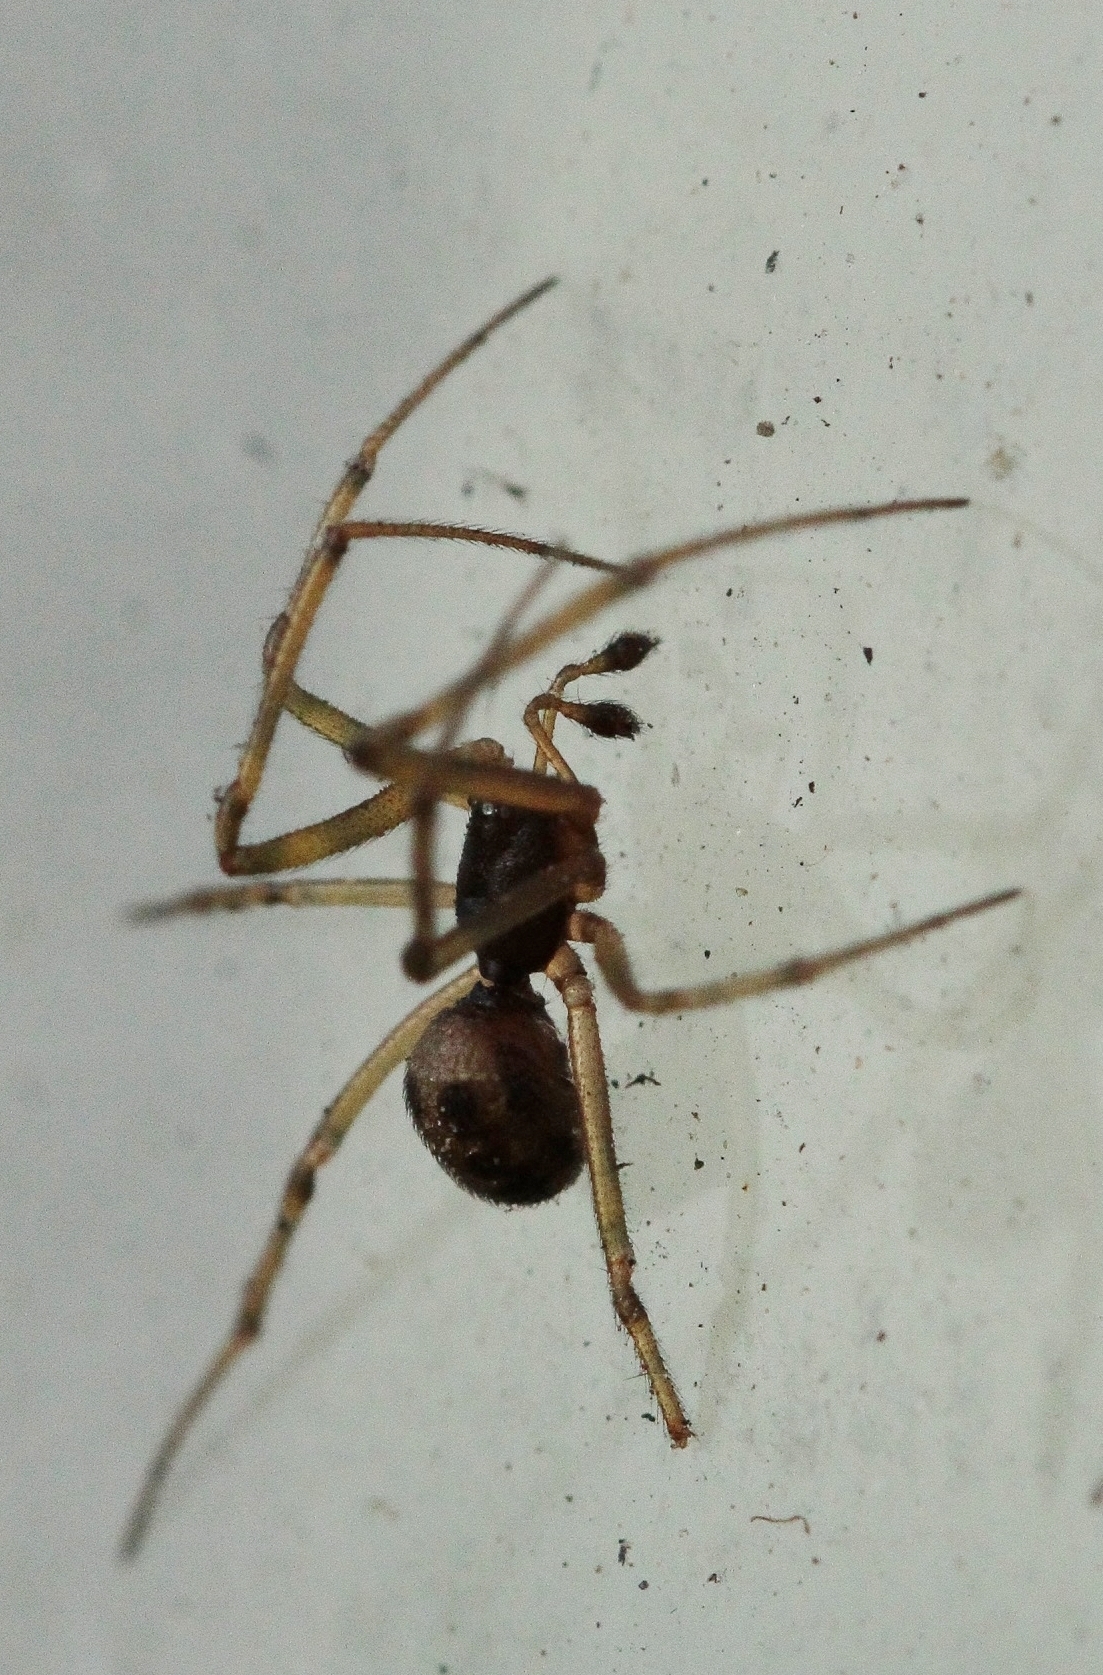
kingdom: Animalia
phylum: Arthropoda
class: Arachnida
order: Araneae
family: Theridiidae
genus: Steatoda
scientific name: Steatoda triangulosa
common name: Triangulate bud spider
